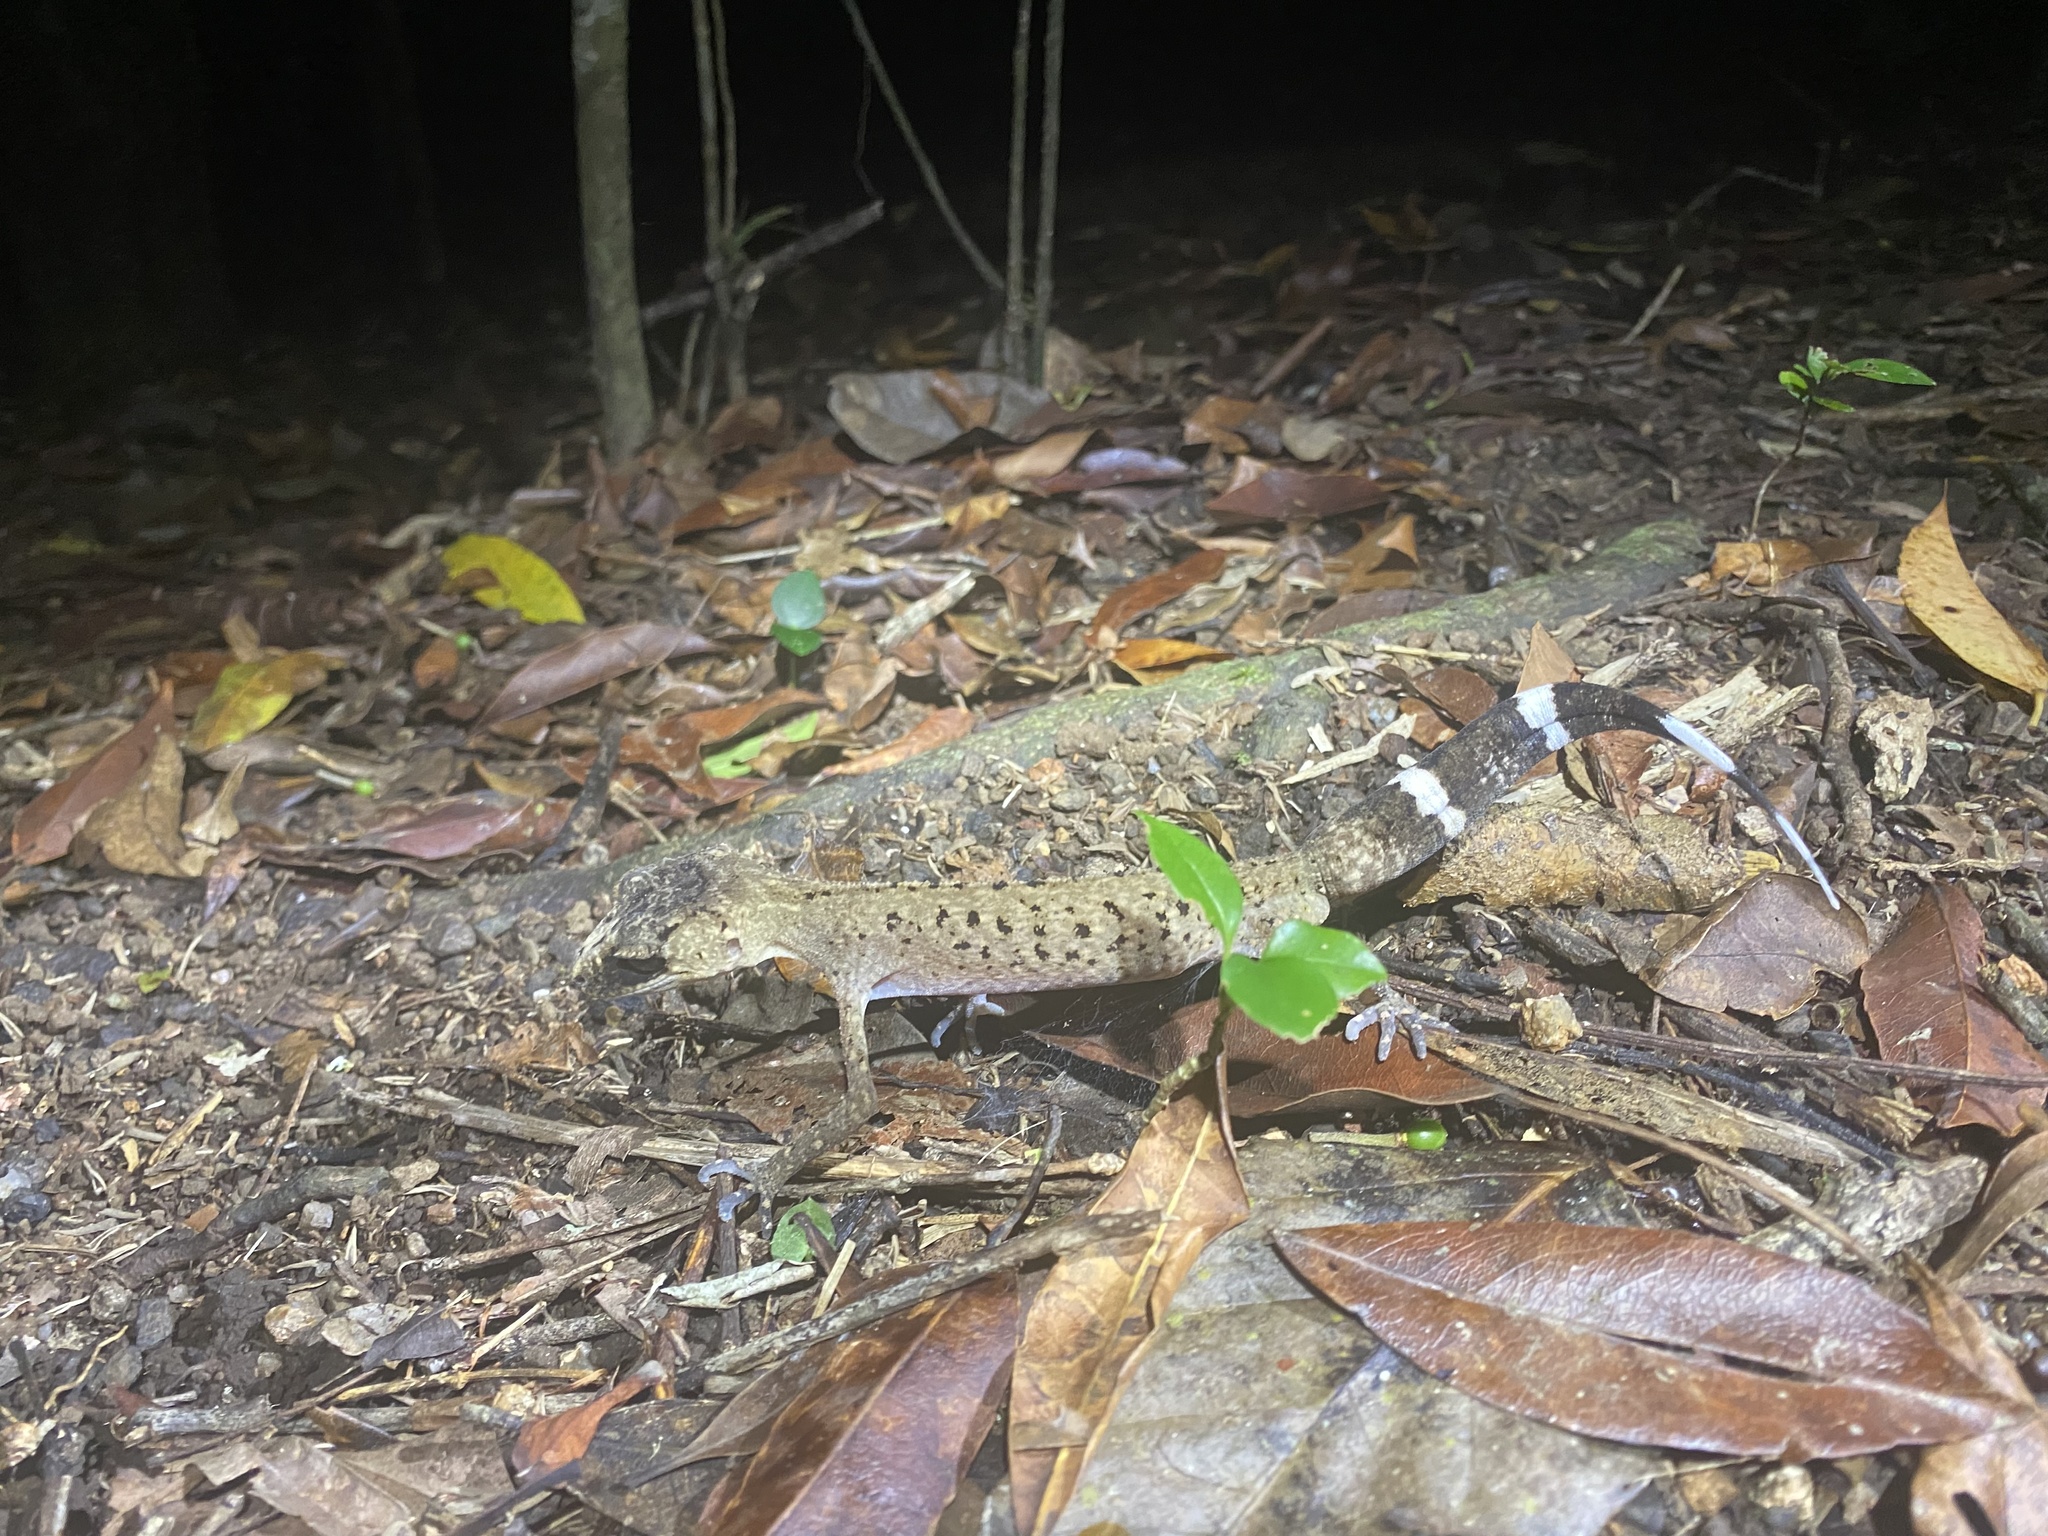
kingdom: Animalia
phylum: Chordata
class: Squamata
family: Carphodactylidae
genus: Carphodactylus
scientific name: Carphodactylus laevis
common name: Chameleon gecko
